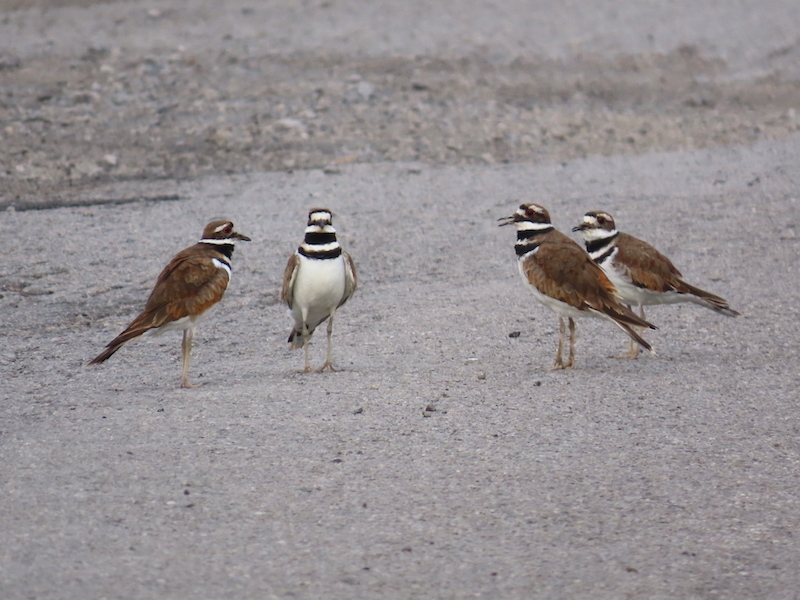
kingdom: Animalia
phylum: Chordata
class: Aves
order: Charadriiformes
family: Charadriidae
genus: Charadrius
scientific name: Charadrius vociferus
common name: Killdeer
